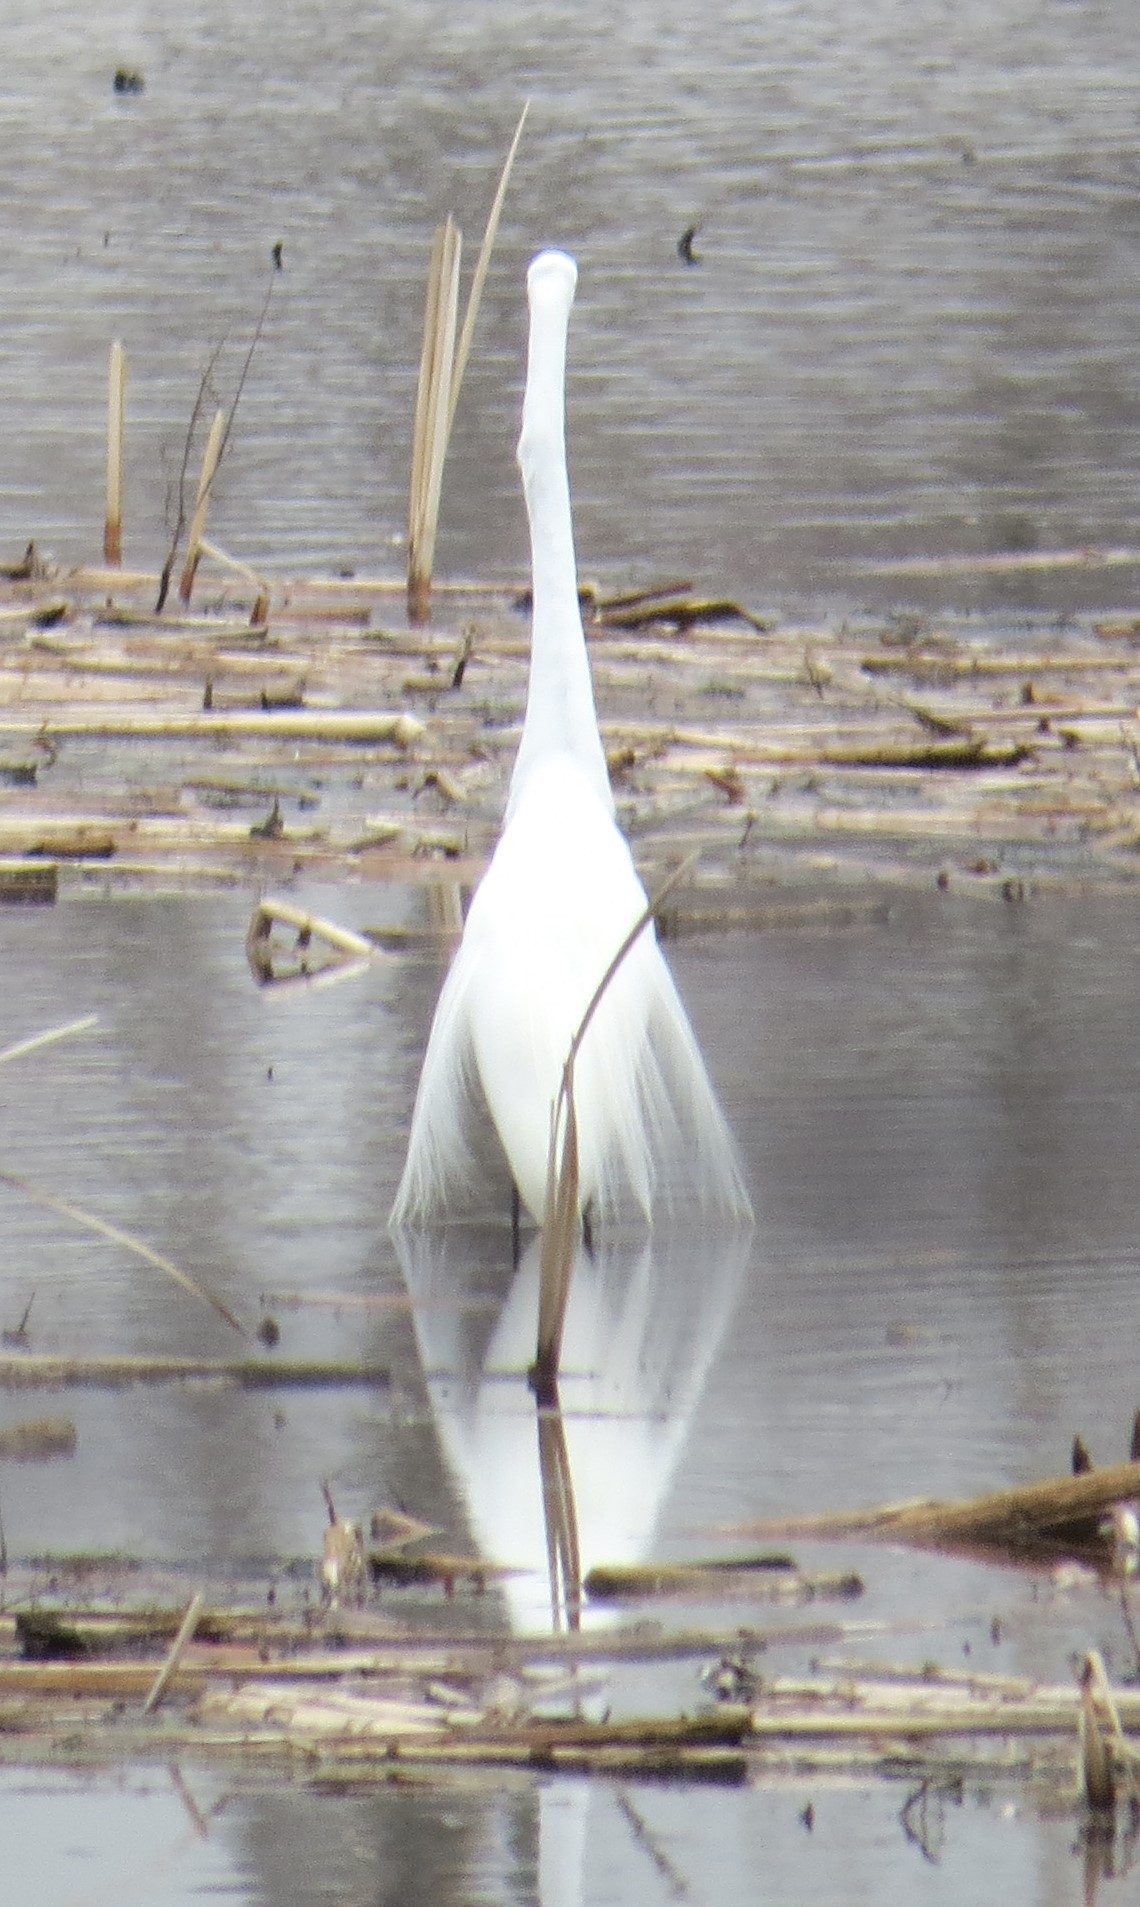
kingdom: Animalia
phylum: Chordata
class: Aves
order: Pelecaniformes
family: Ardeidae
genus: Ardea
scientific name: Ardea alba
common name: Great egret
